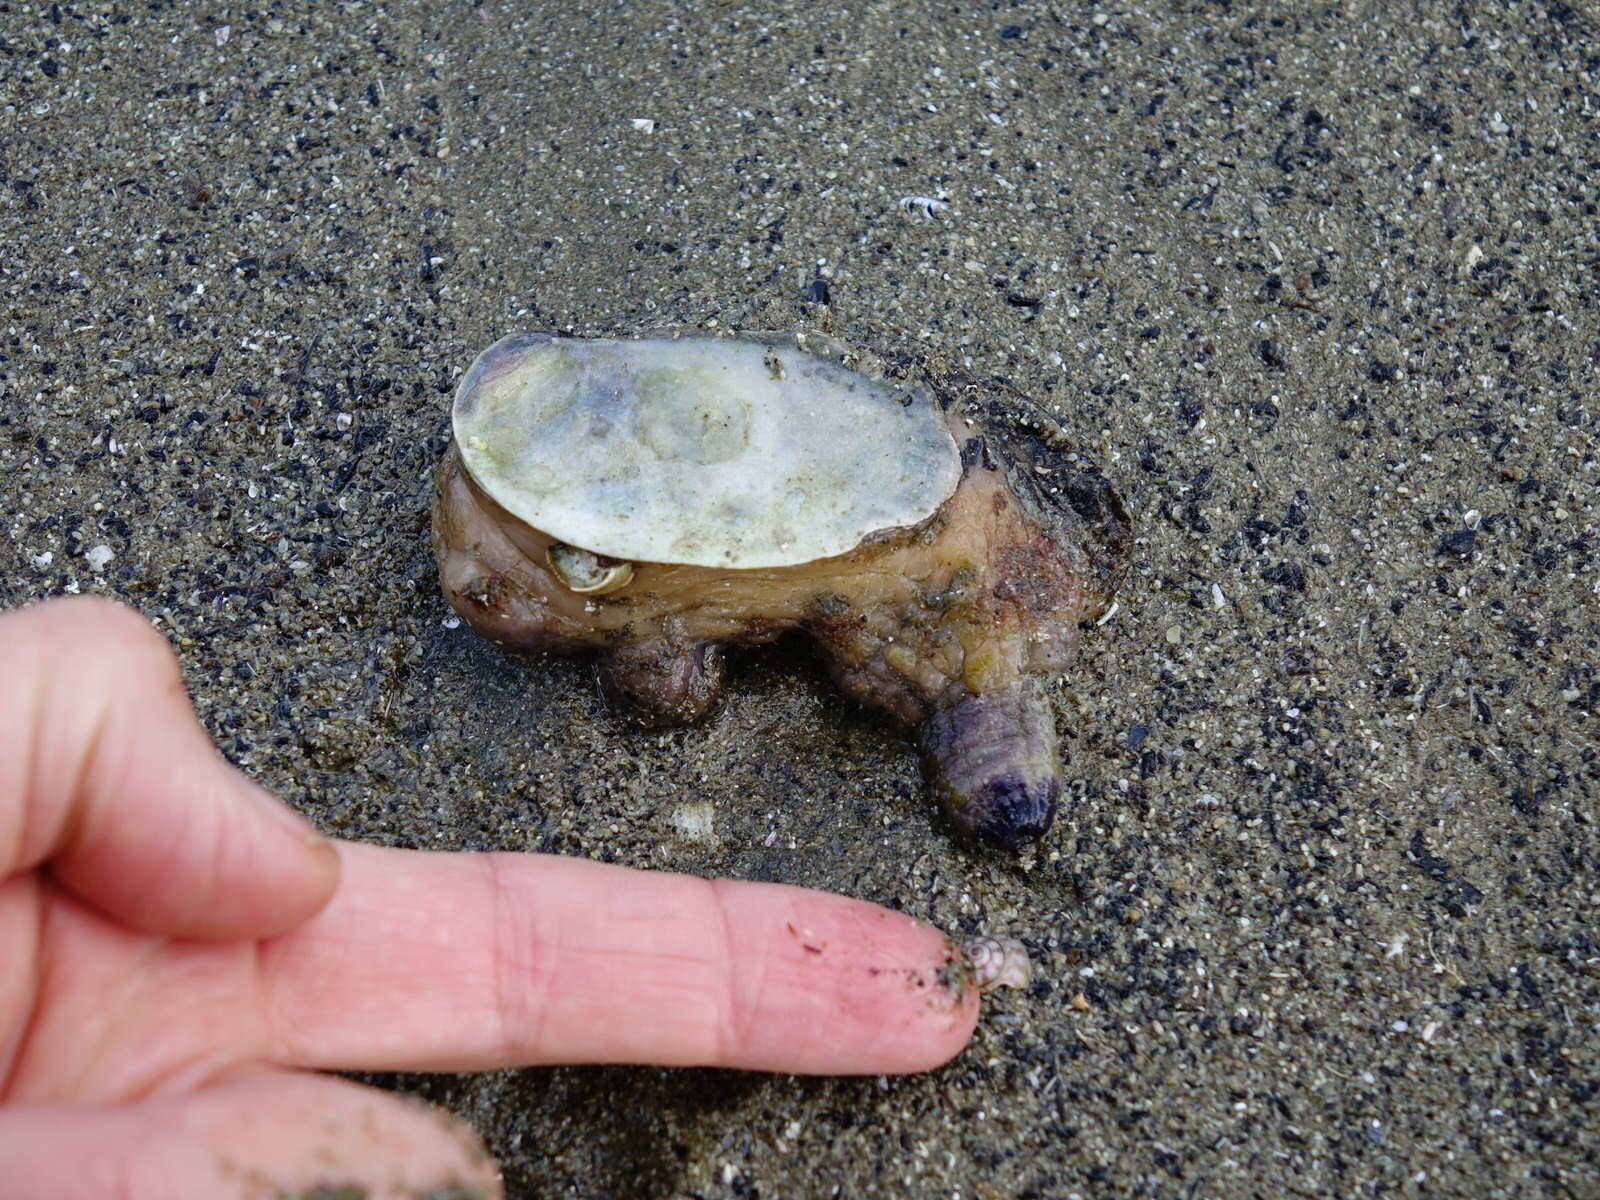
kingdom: Animalia
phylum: Chordata
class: Ascidiacea
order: Stolidobranchia
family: Styelidae
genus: Asterocarpa
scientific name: Asterocarpa coerulea
